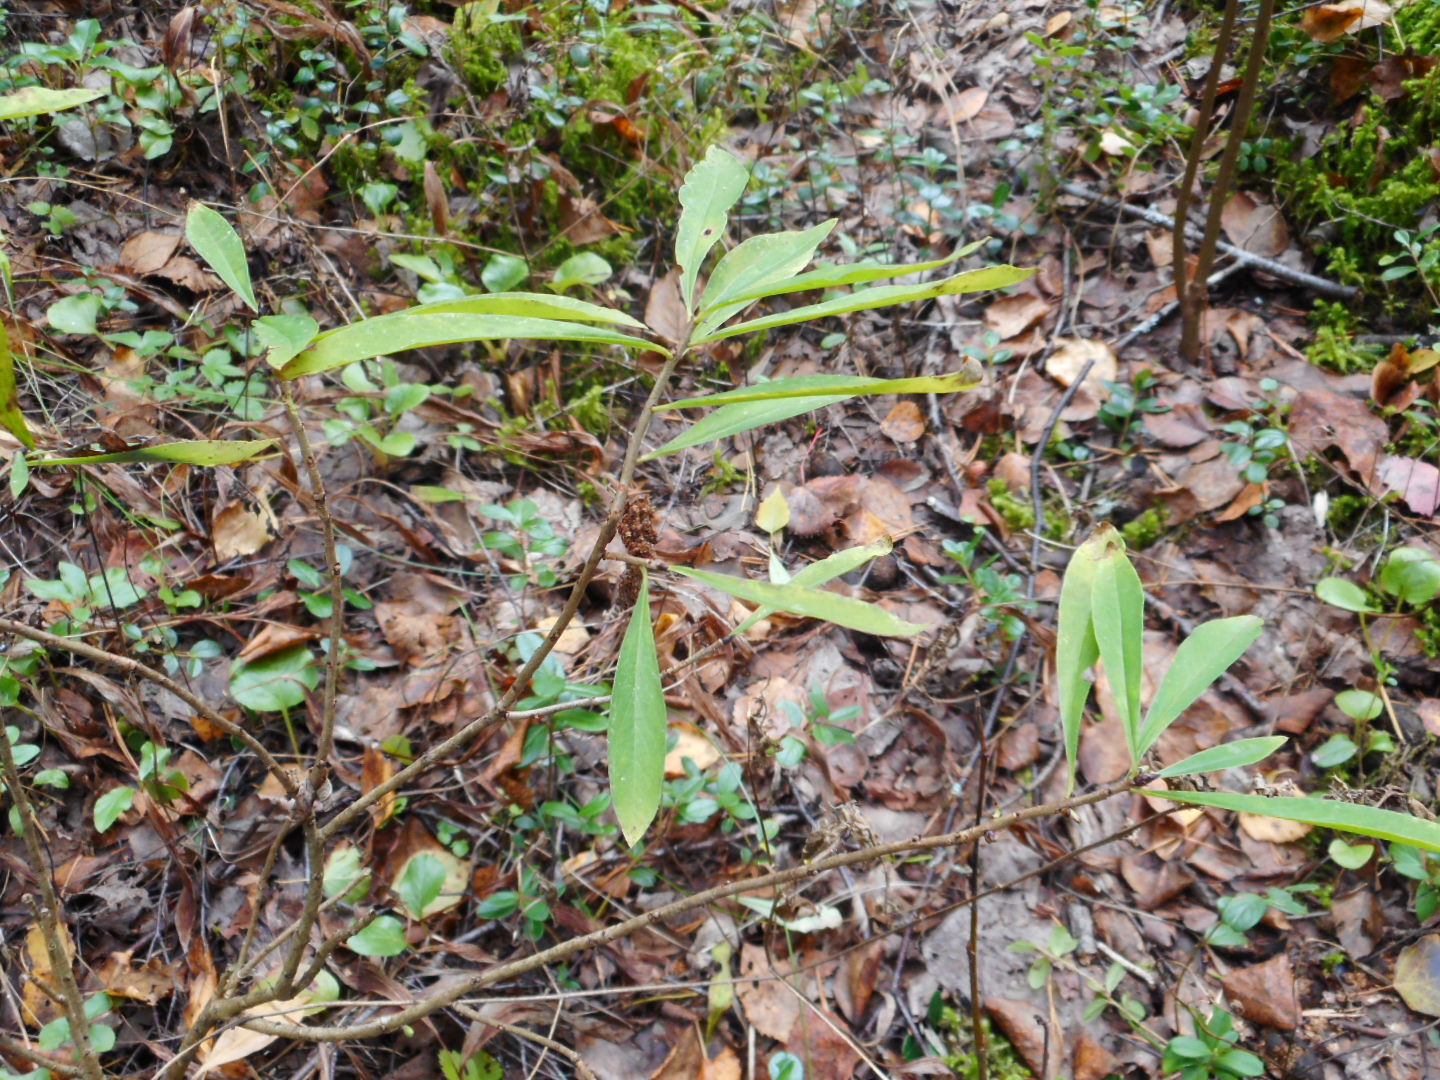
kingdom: Plantae
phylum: Tracheophyta
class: Magnoliopsida
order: Malvales
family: Thymelaeaceae
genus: Daphne
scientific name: Daphne mezereum
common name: Mezereon
